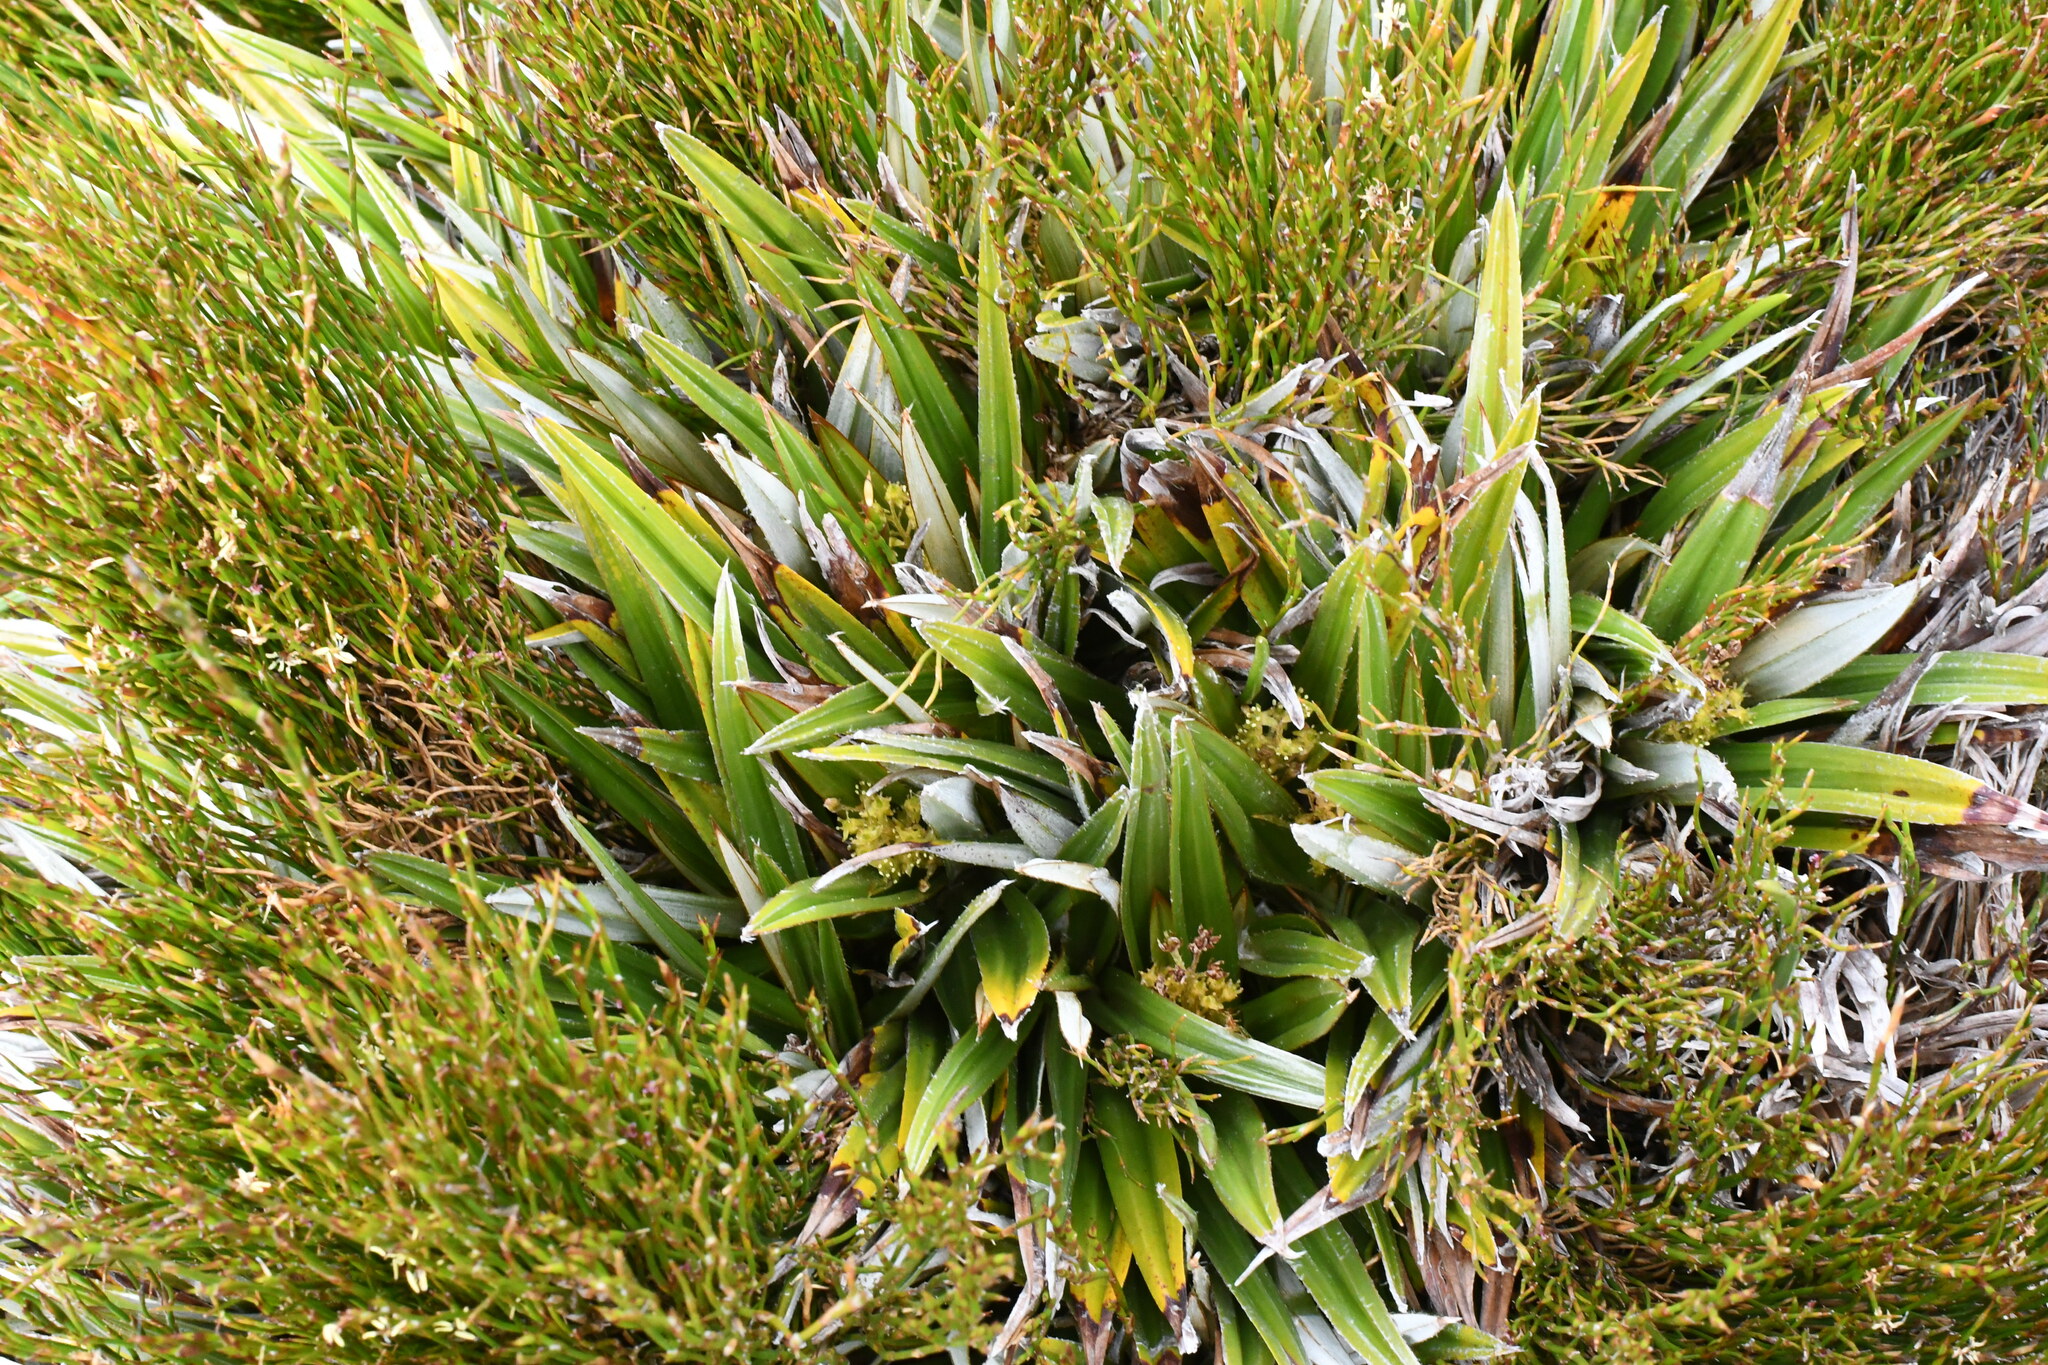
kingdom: Plantae
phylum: Tracheophyta
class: Liliopsida
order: Asparagales
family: Asteliaceae
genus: Astelia
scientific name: Astelia alpina
